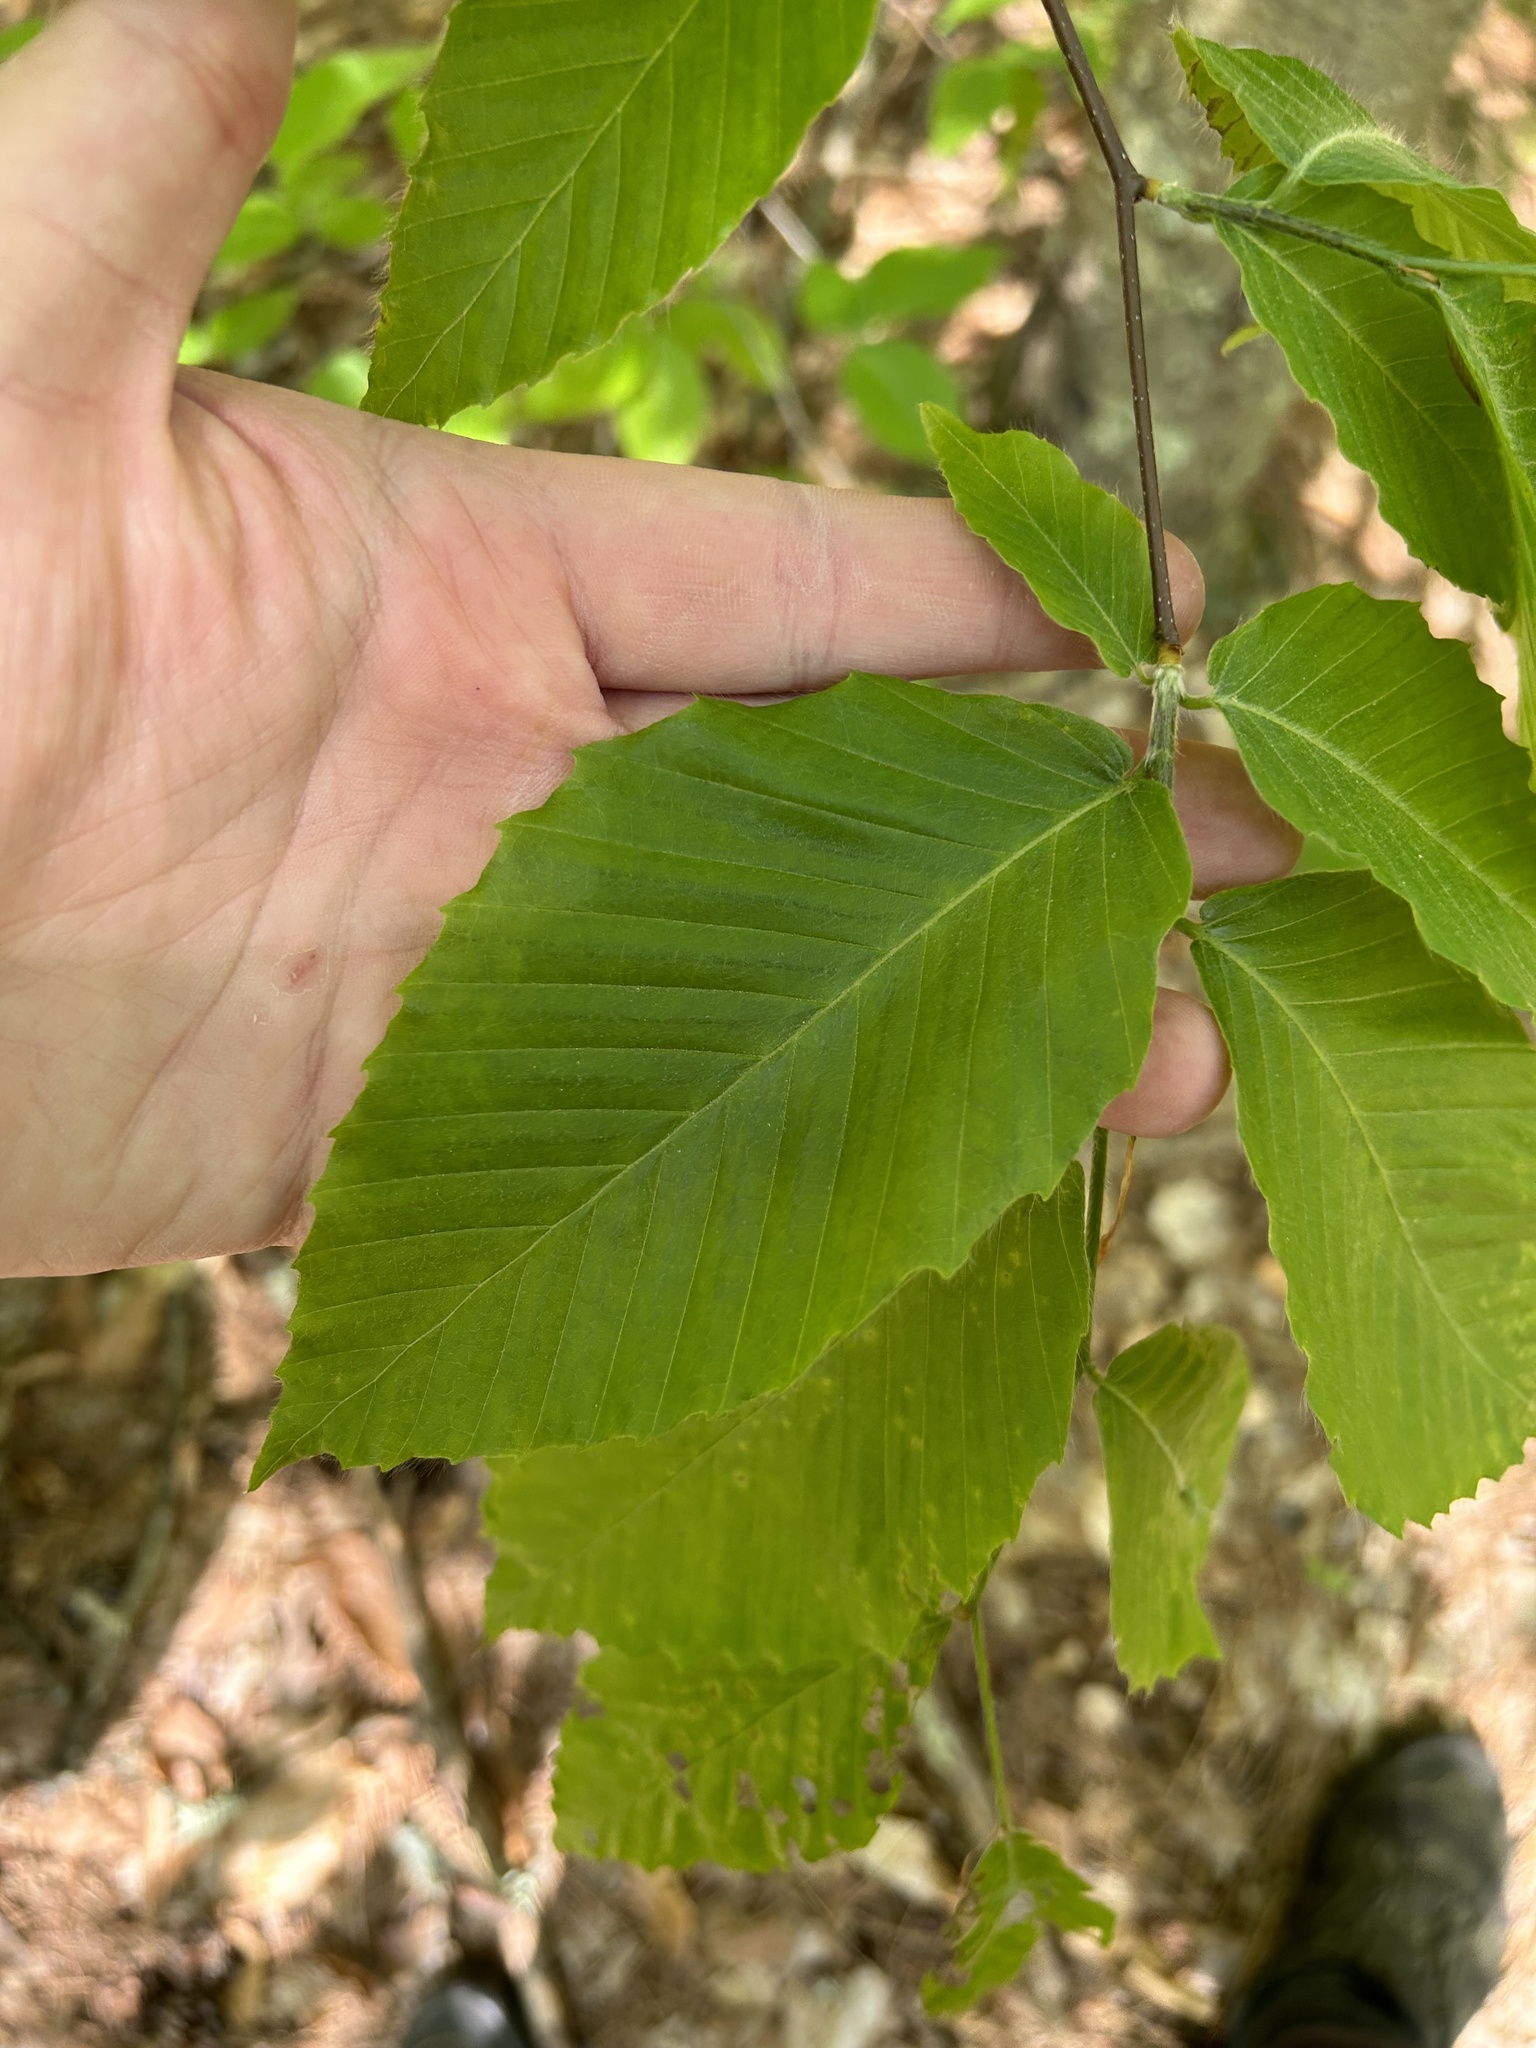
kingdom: Plantae
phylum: Tracheophyta
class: Magnoliopsida
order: Fagales
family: Fagaceae
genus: Fagus
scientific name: Fagus grandifolia
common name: American beech
